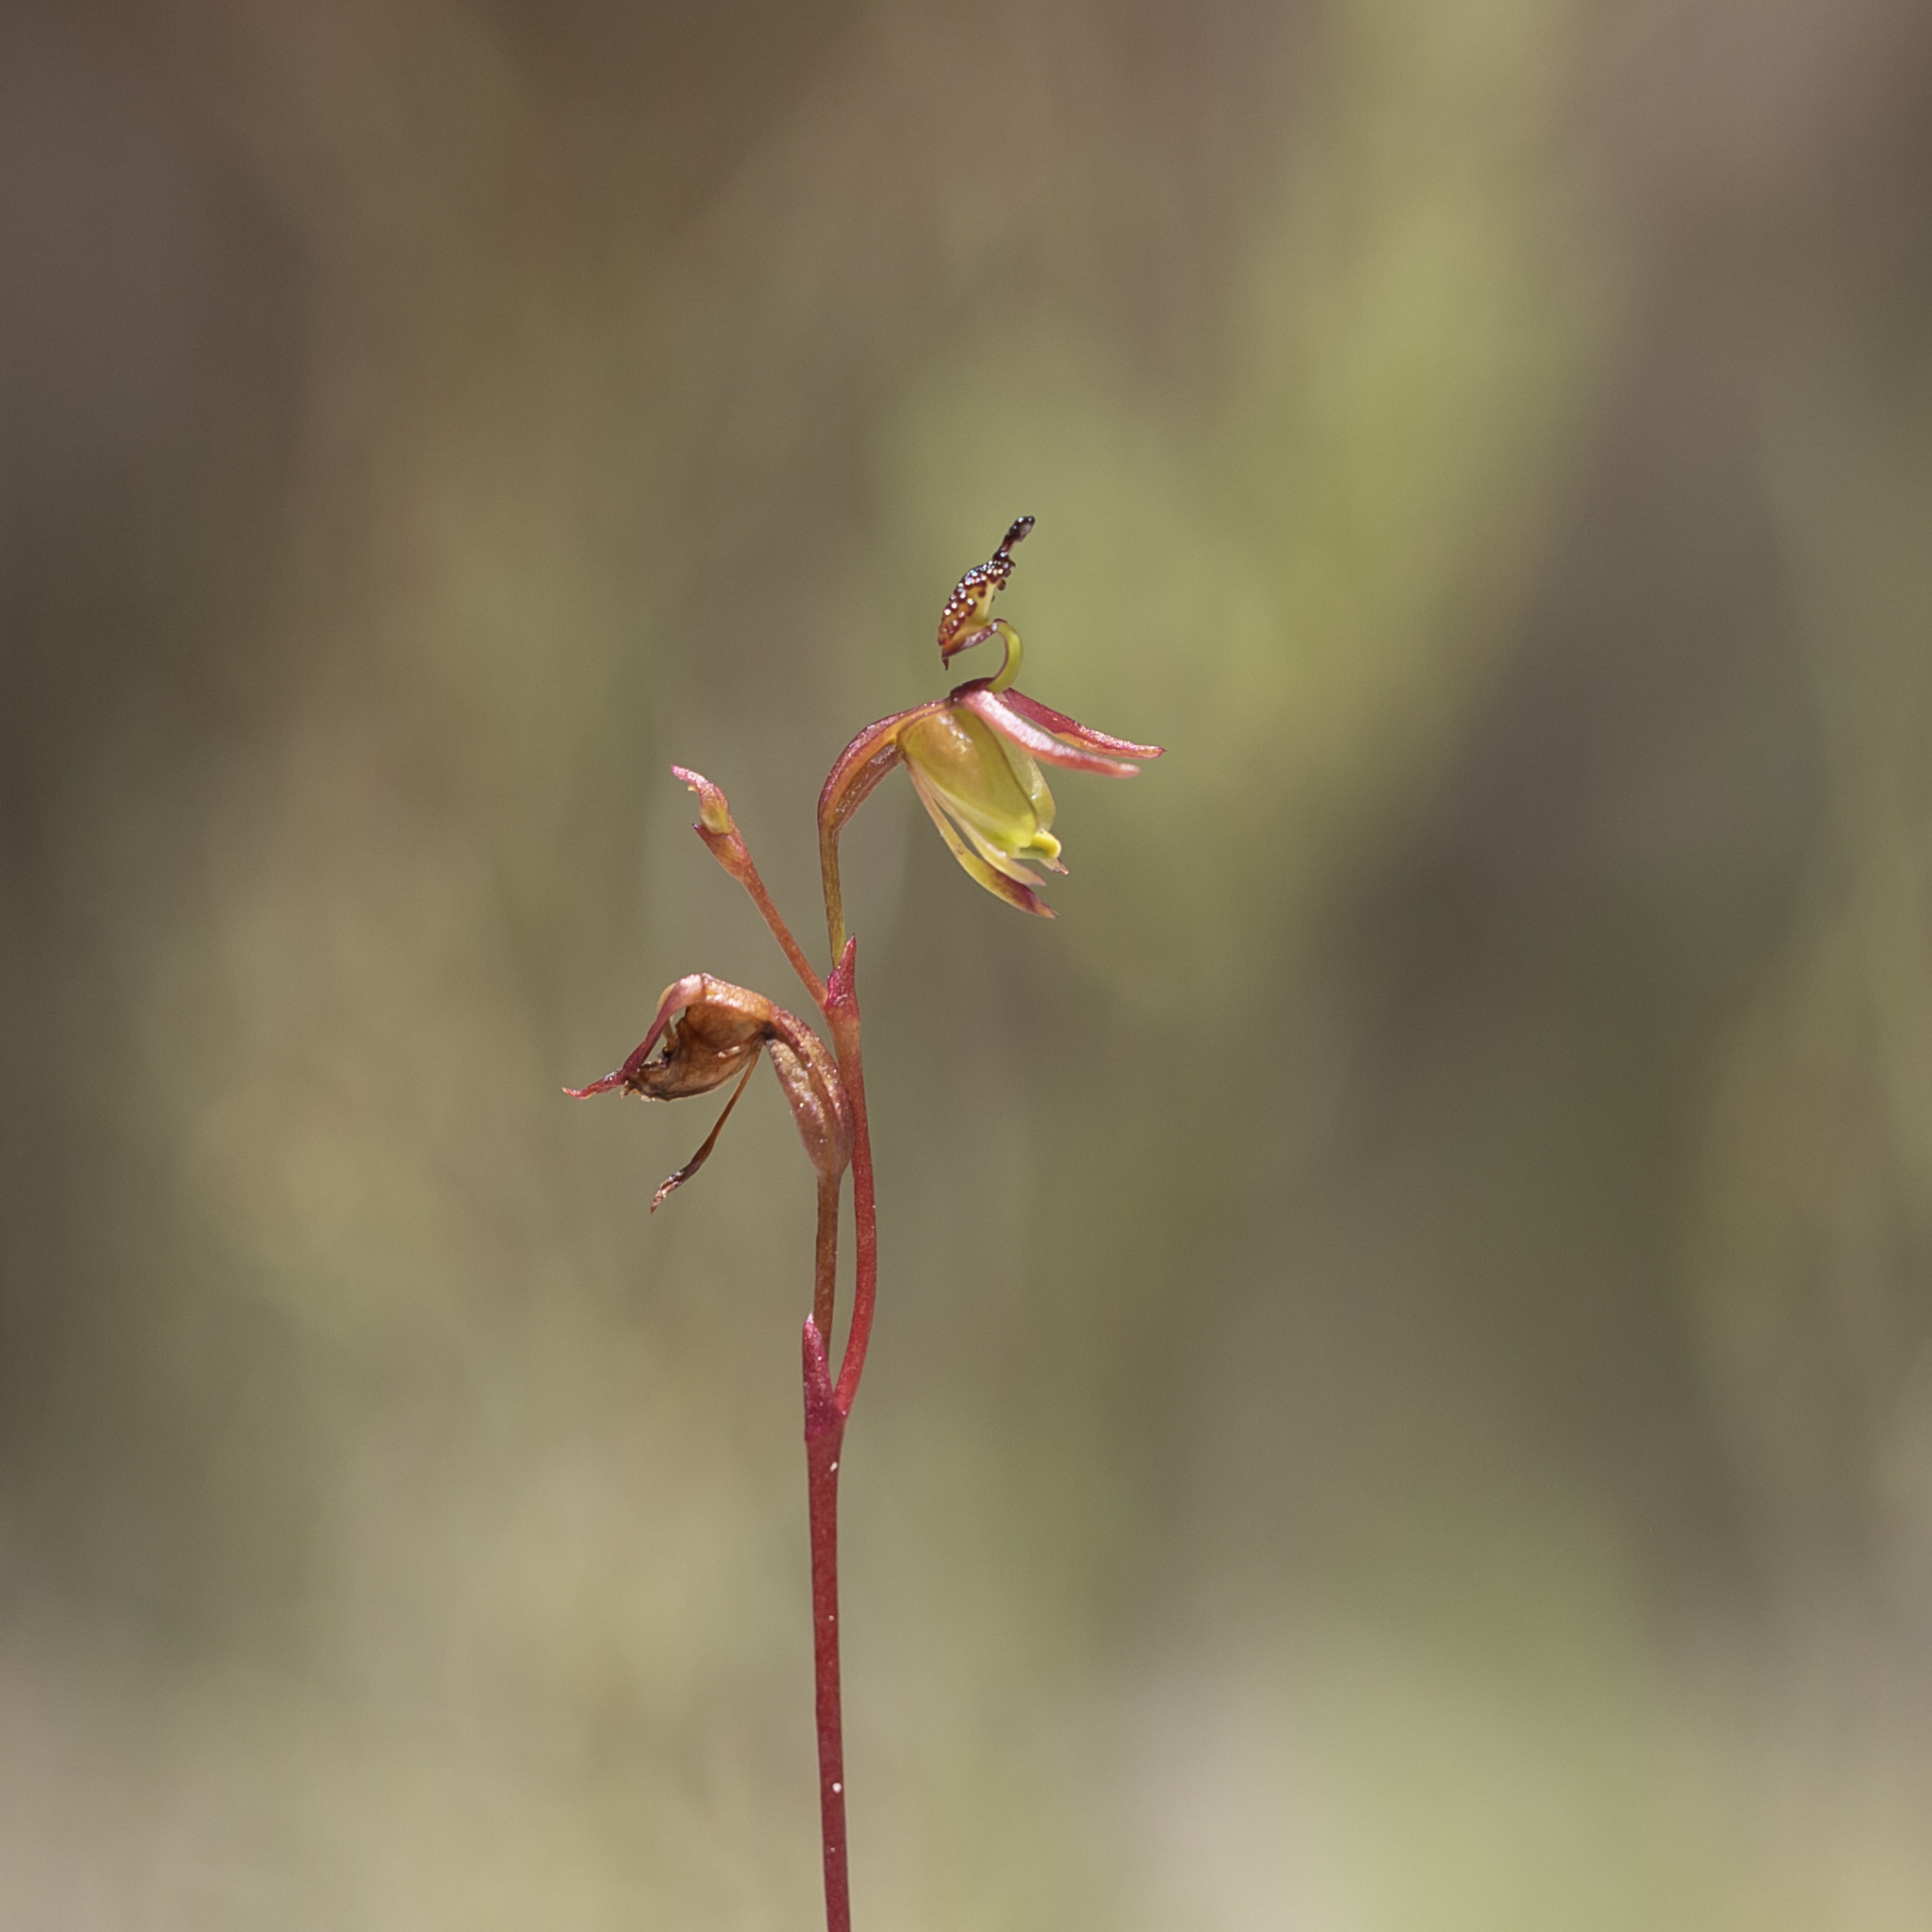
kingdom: Plantae
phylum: Tracheophyta
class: Liliopsida
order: Asparagales
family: Orchidaceae
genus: Caleana
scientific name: Caleana minor
